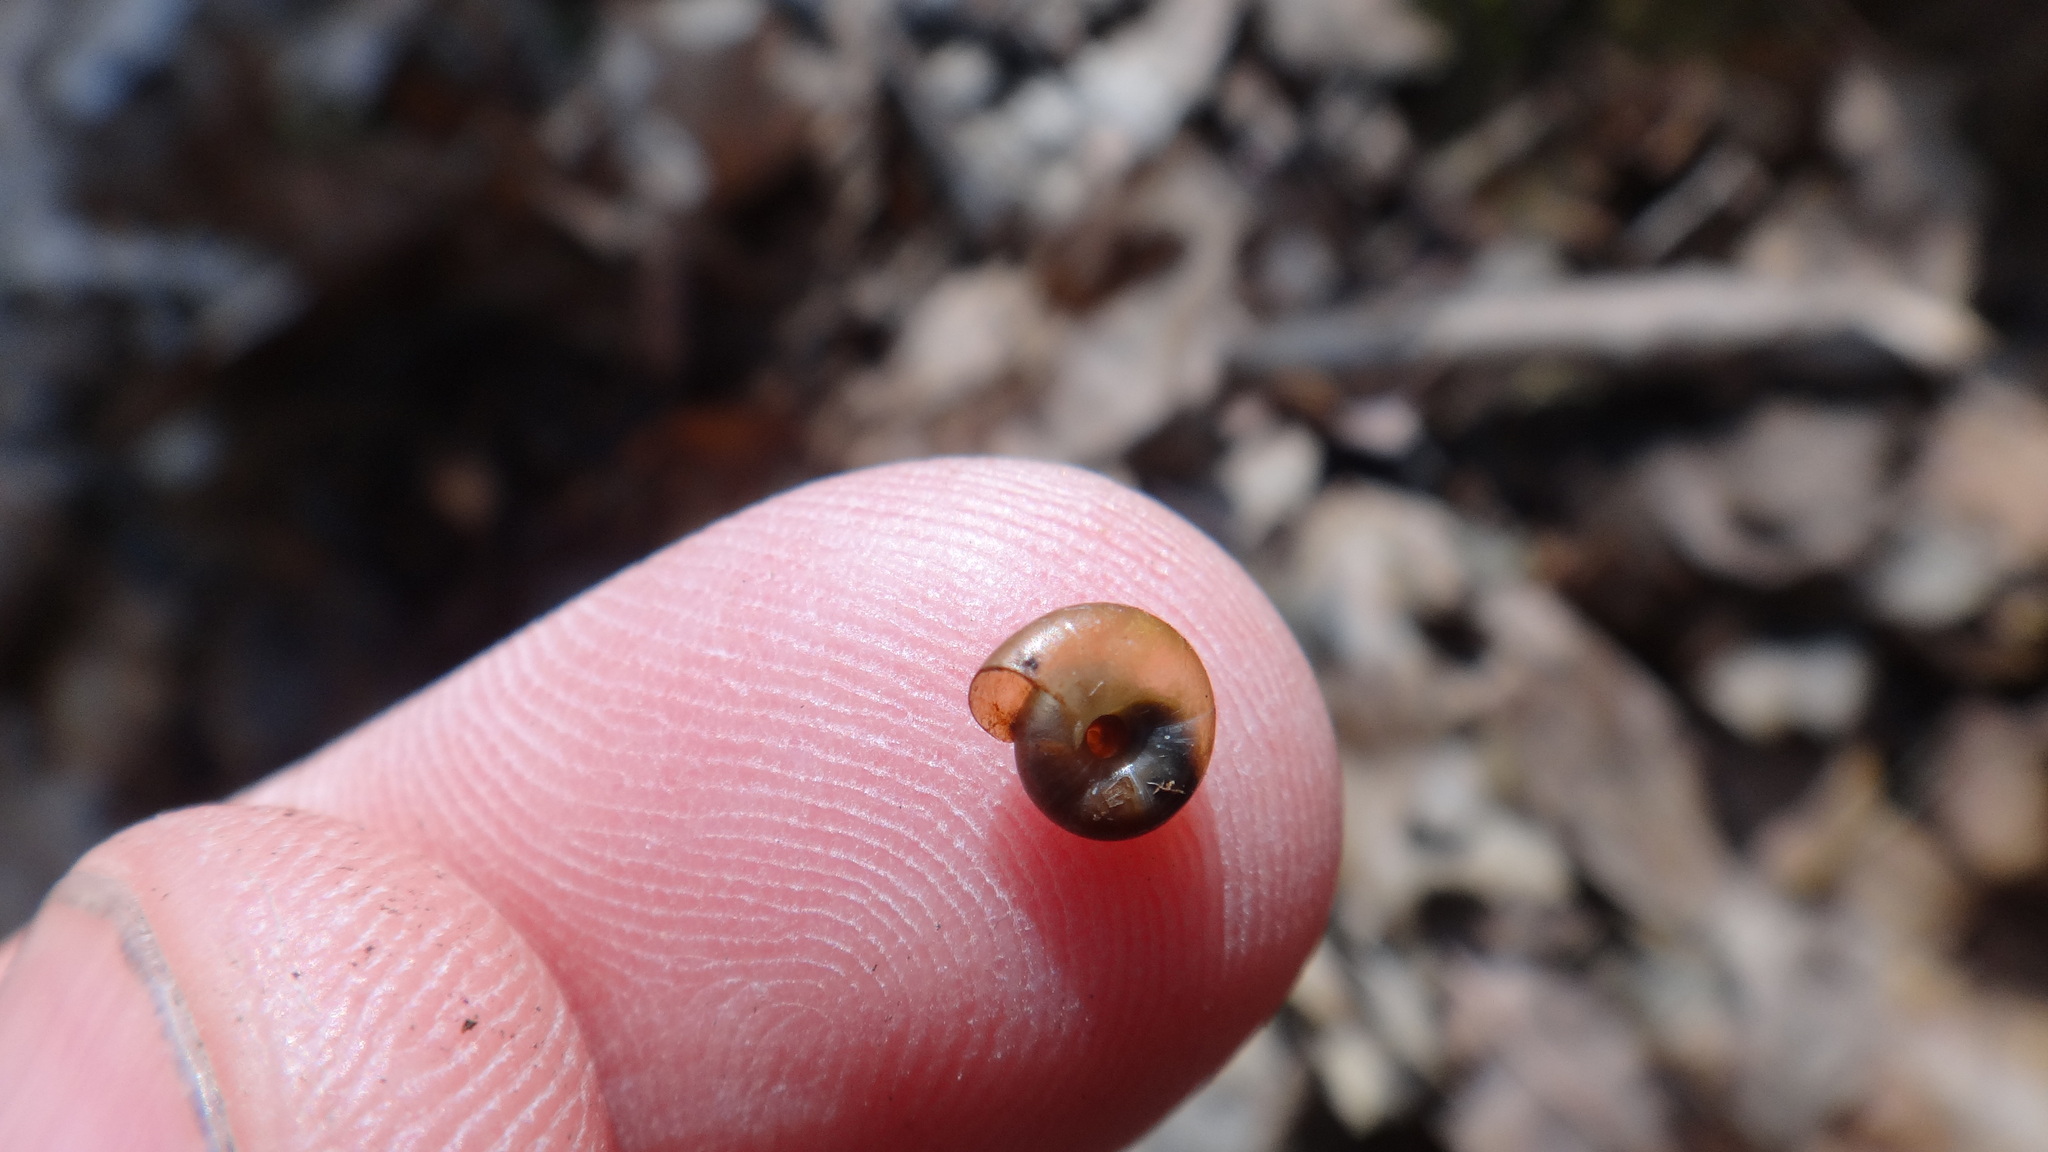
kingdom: Animalia
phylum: Mollusca
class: Gastropoda
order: Stylommatophora
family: Gastrodontidae
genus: Aegopinella
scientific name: Aegopinella minor
